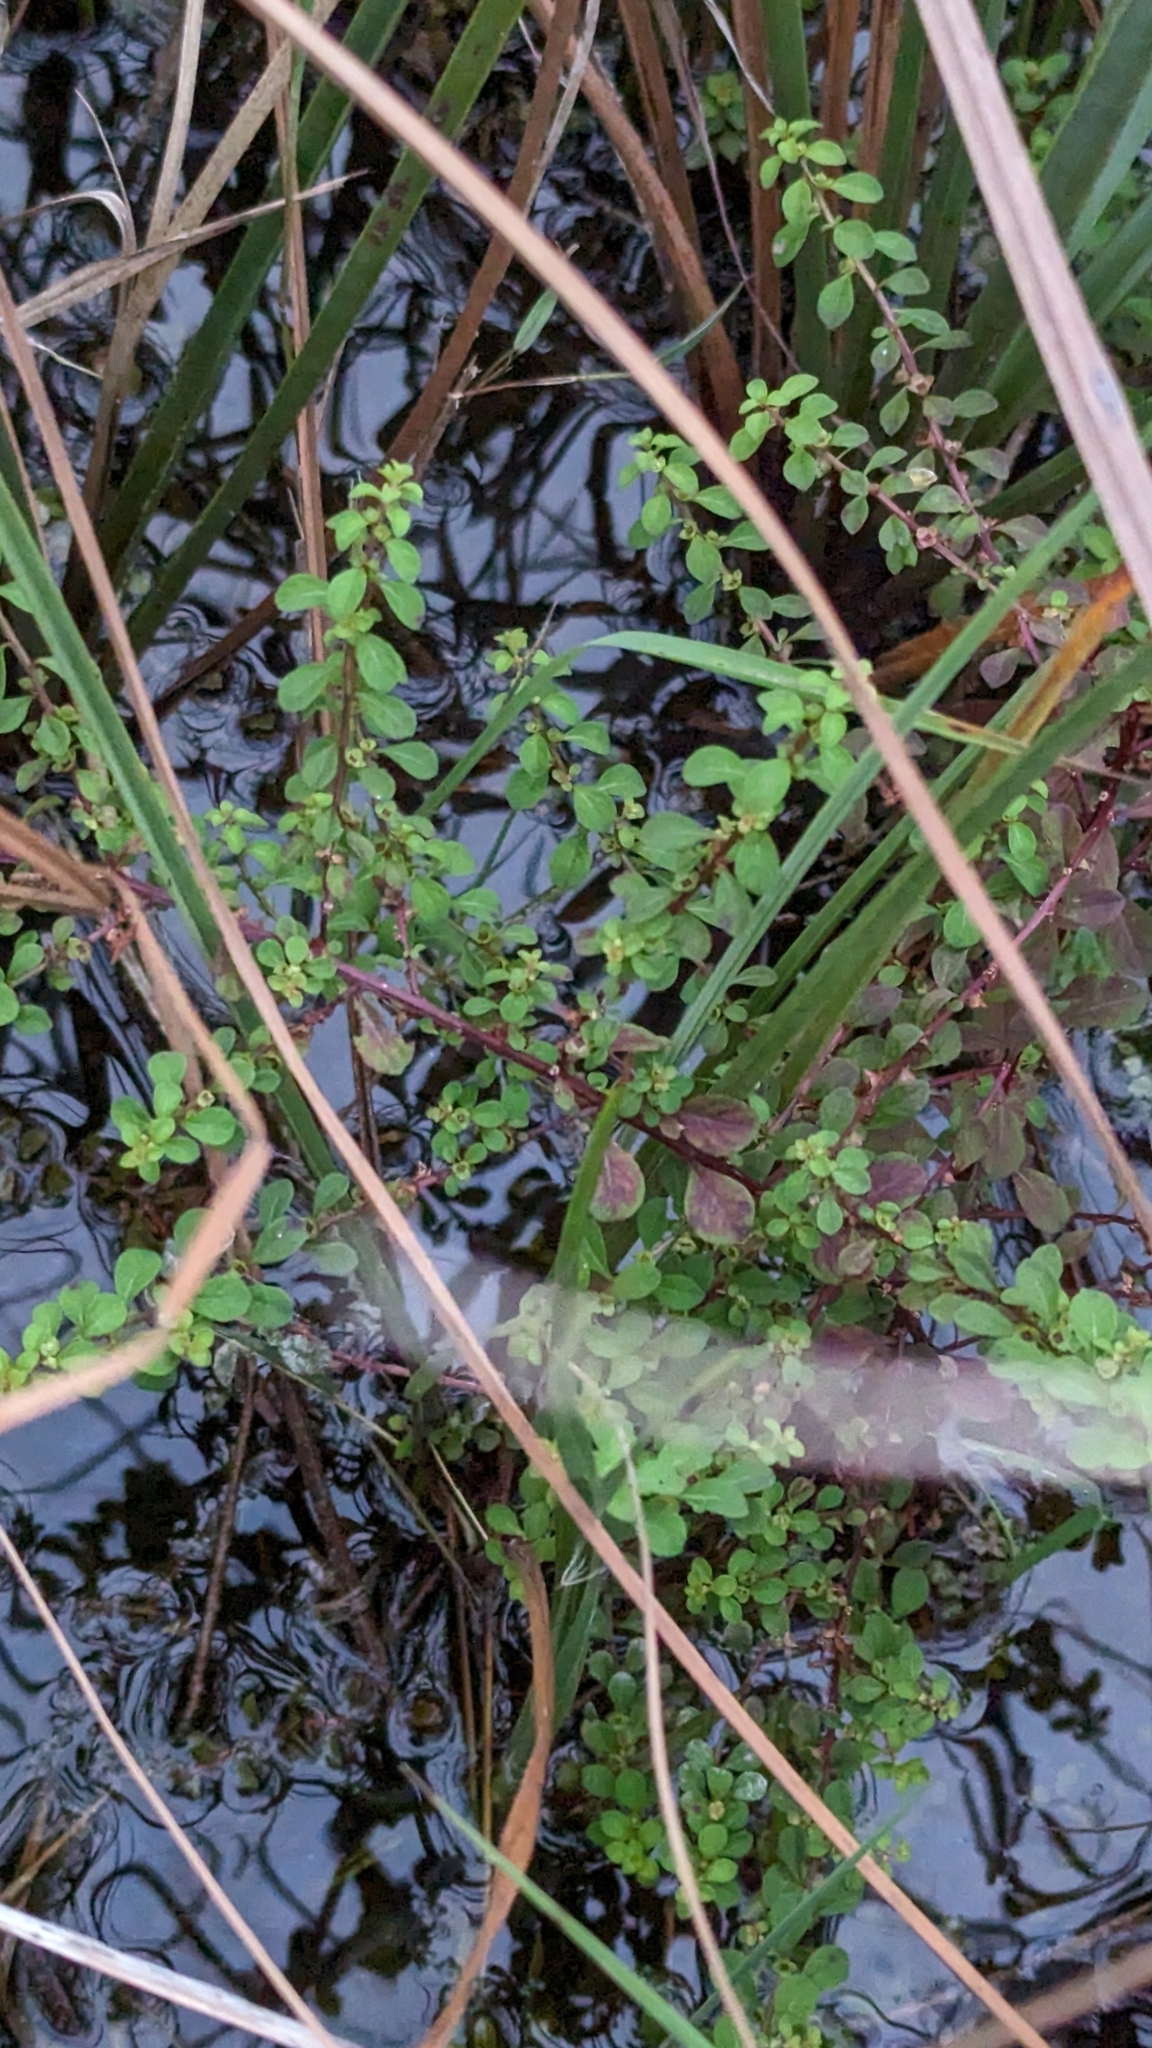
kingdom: Plantae
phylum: Tracheophyta
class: Magnoliopsida
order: Myrtales
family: Onagraceae
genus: Ludwigia
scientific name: Ludwigia microcarpa
